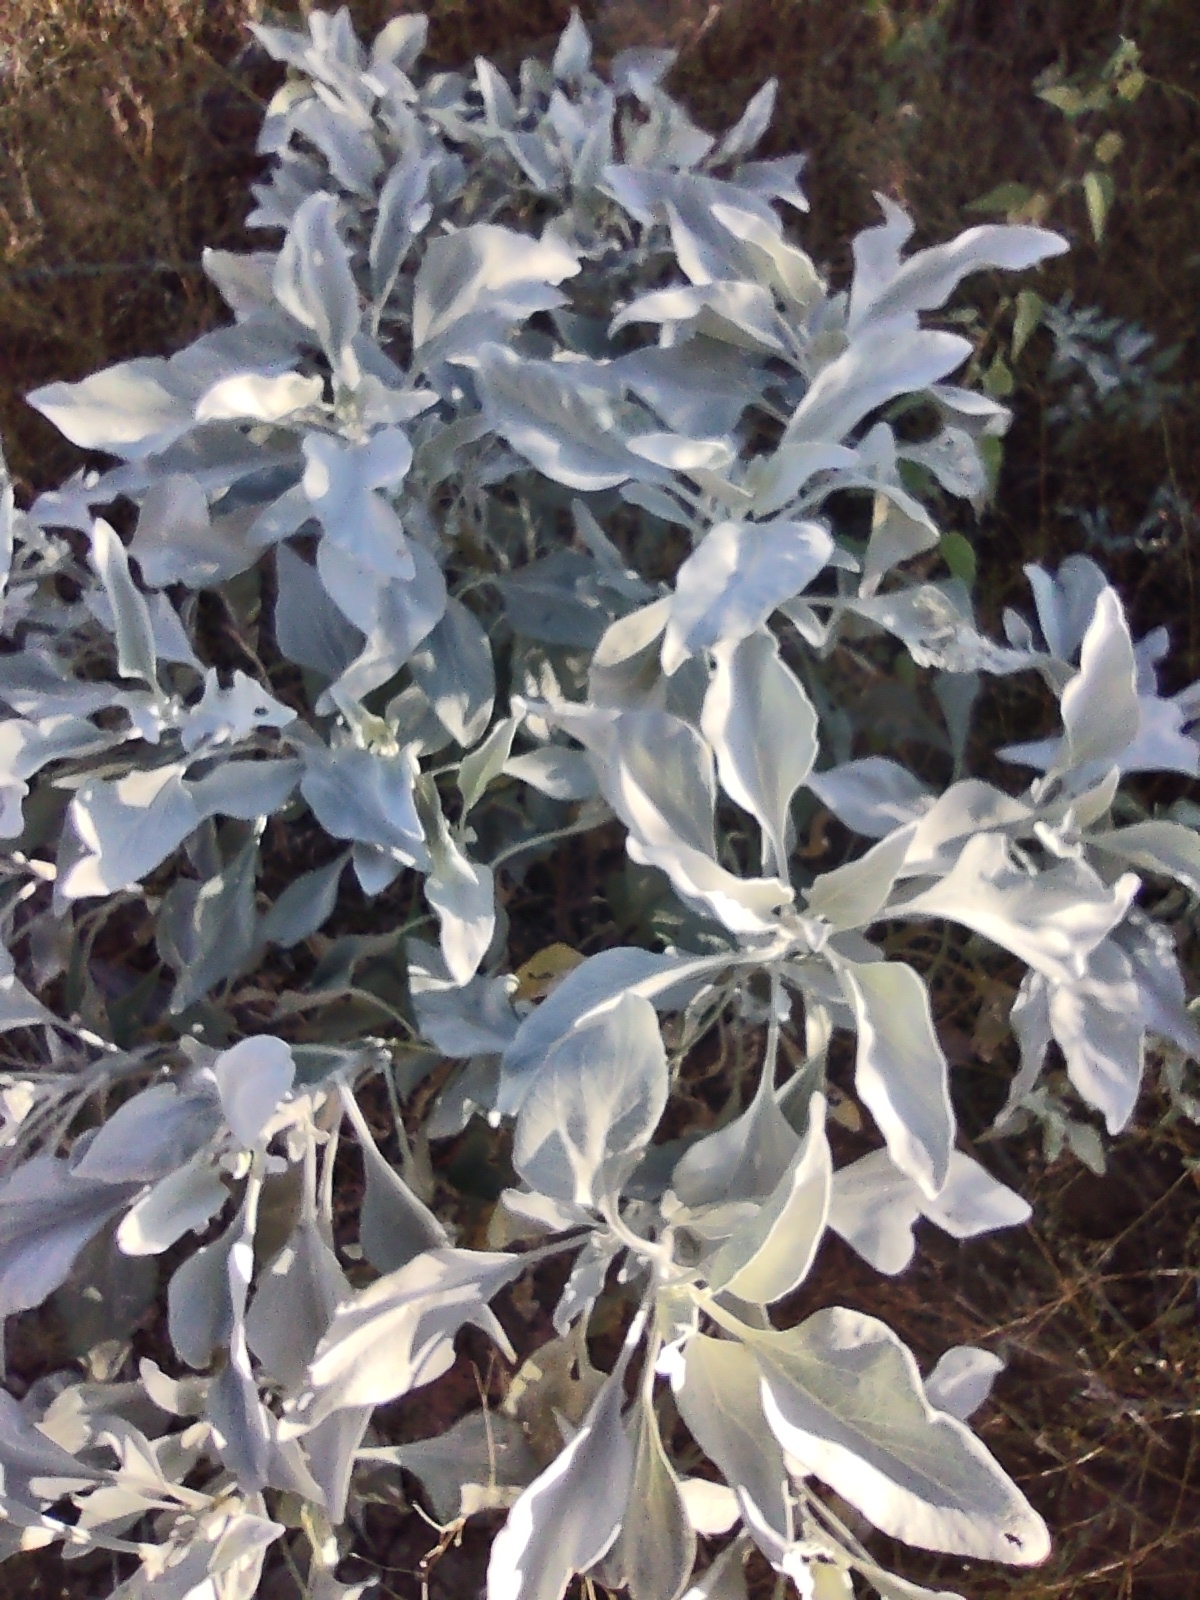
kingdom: Plantae
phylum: Tracheophyta
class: Magnoliopsida
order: Asterales
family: Asteraceae
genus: Encelia
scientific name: Encelia farinosa
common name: Brittlebush
